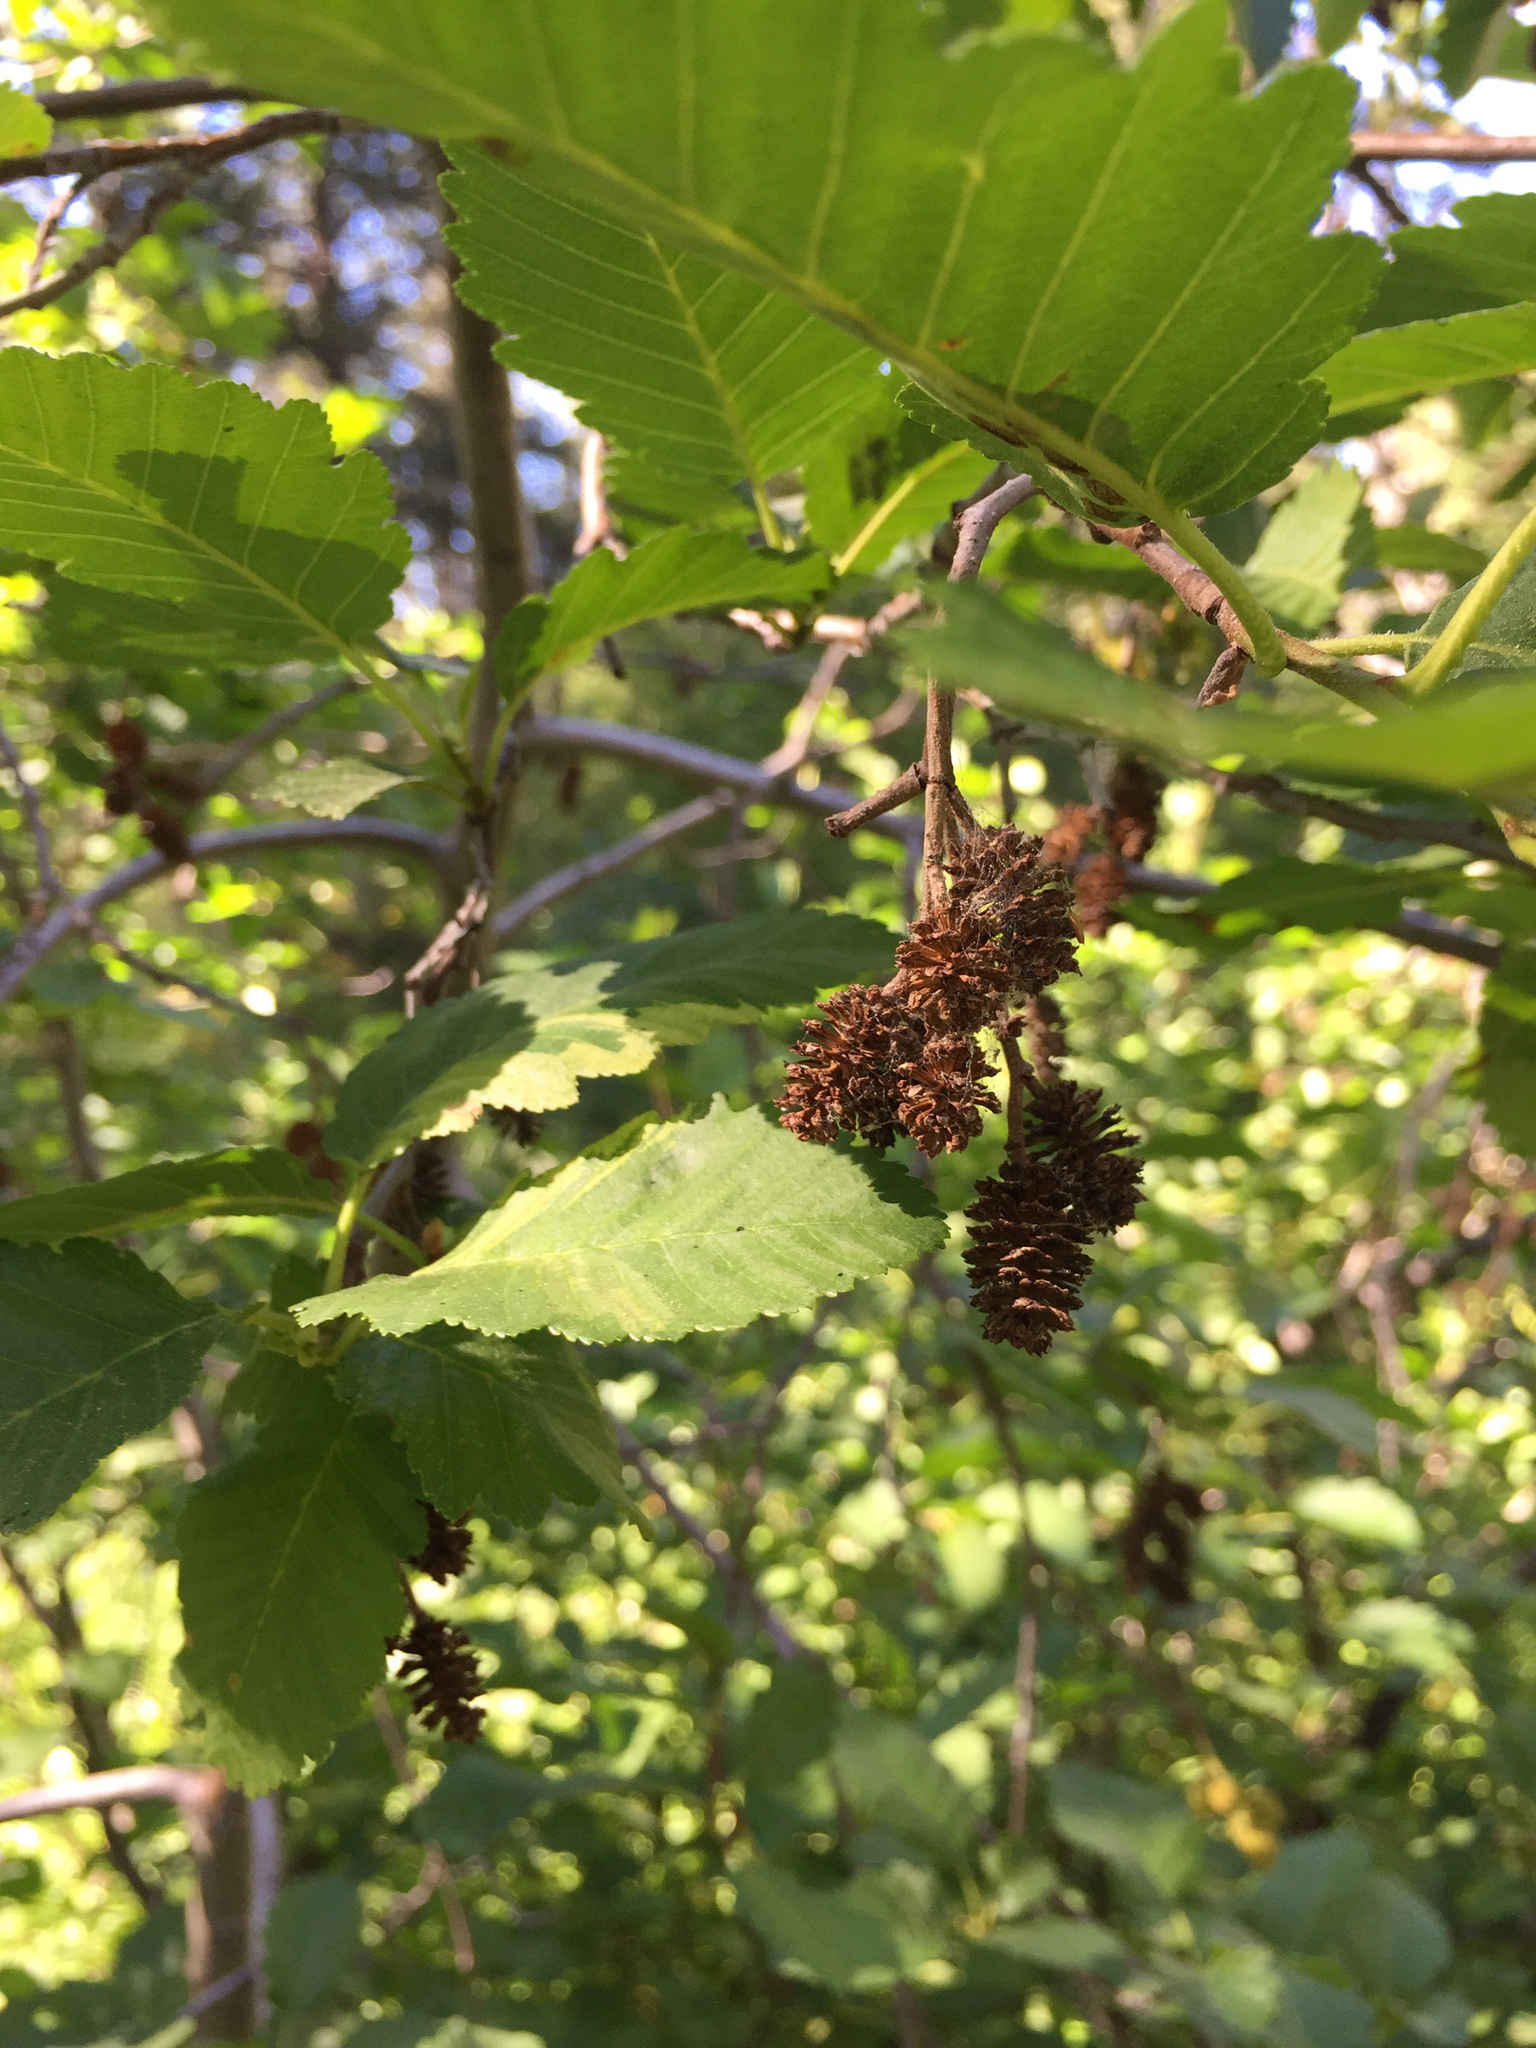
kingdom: Plantae
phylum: Tracheophyta
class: Magnoliopsida
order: Fagales
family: Betulaceae
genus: Alnus
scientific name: Alnus incana
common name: Grey alder
